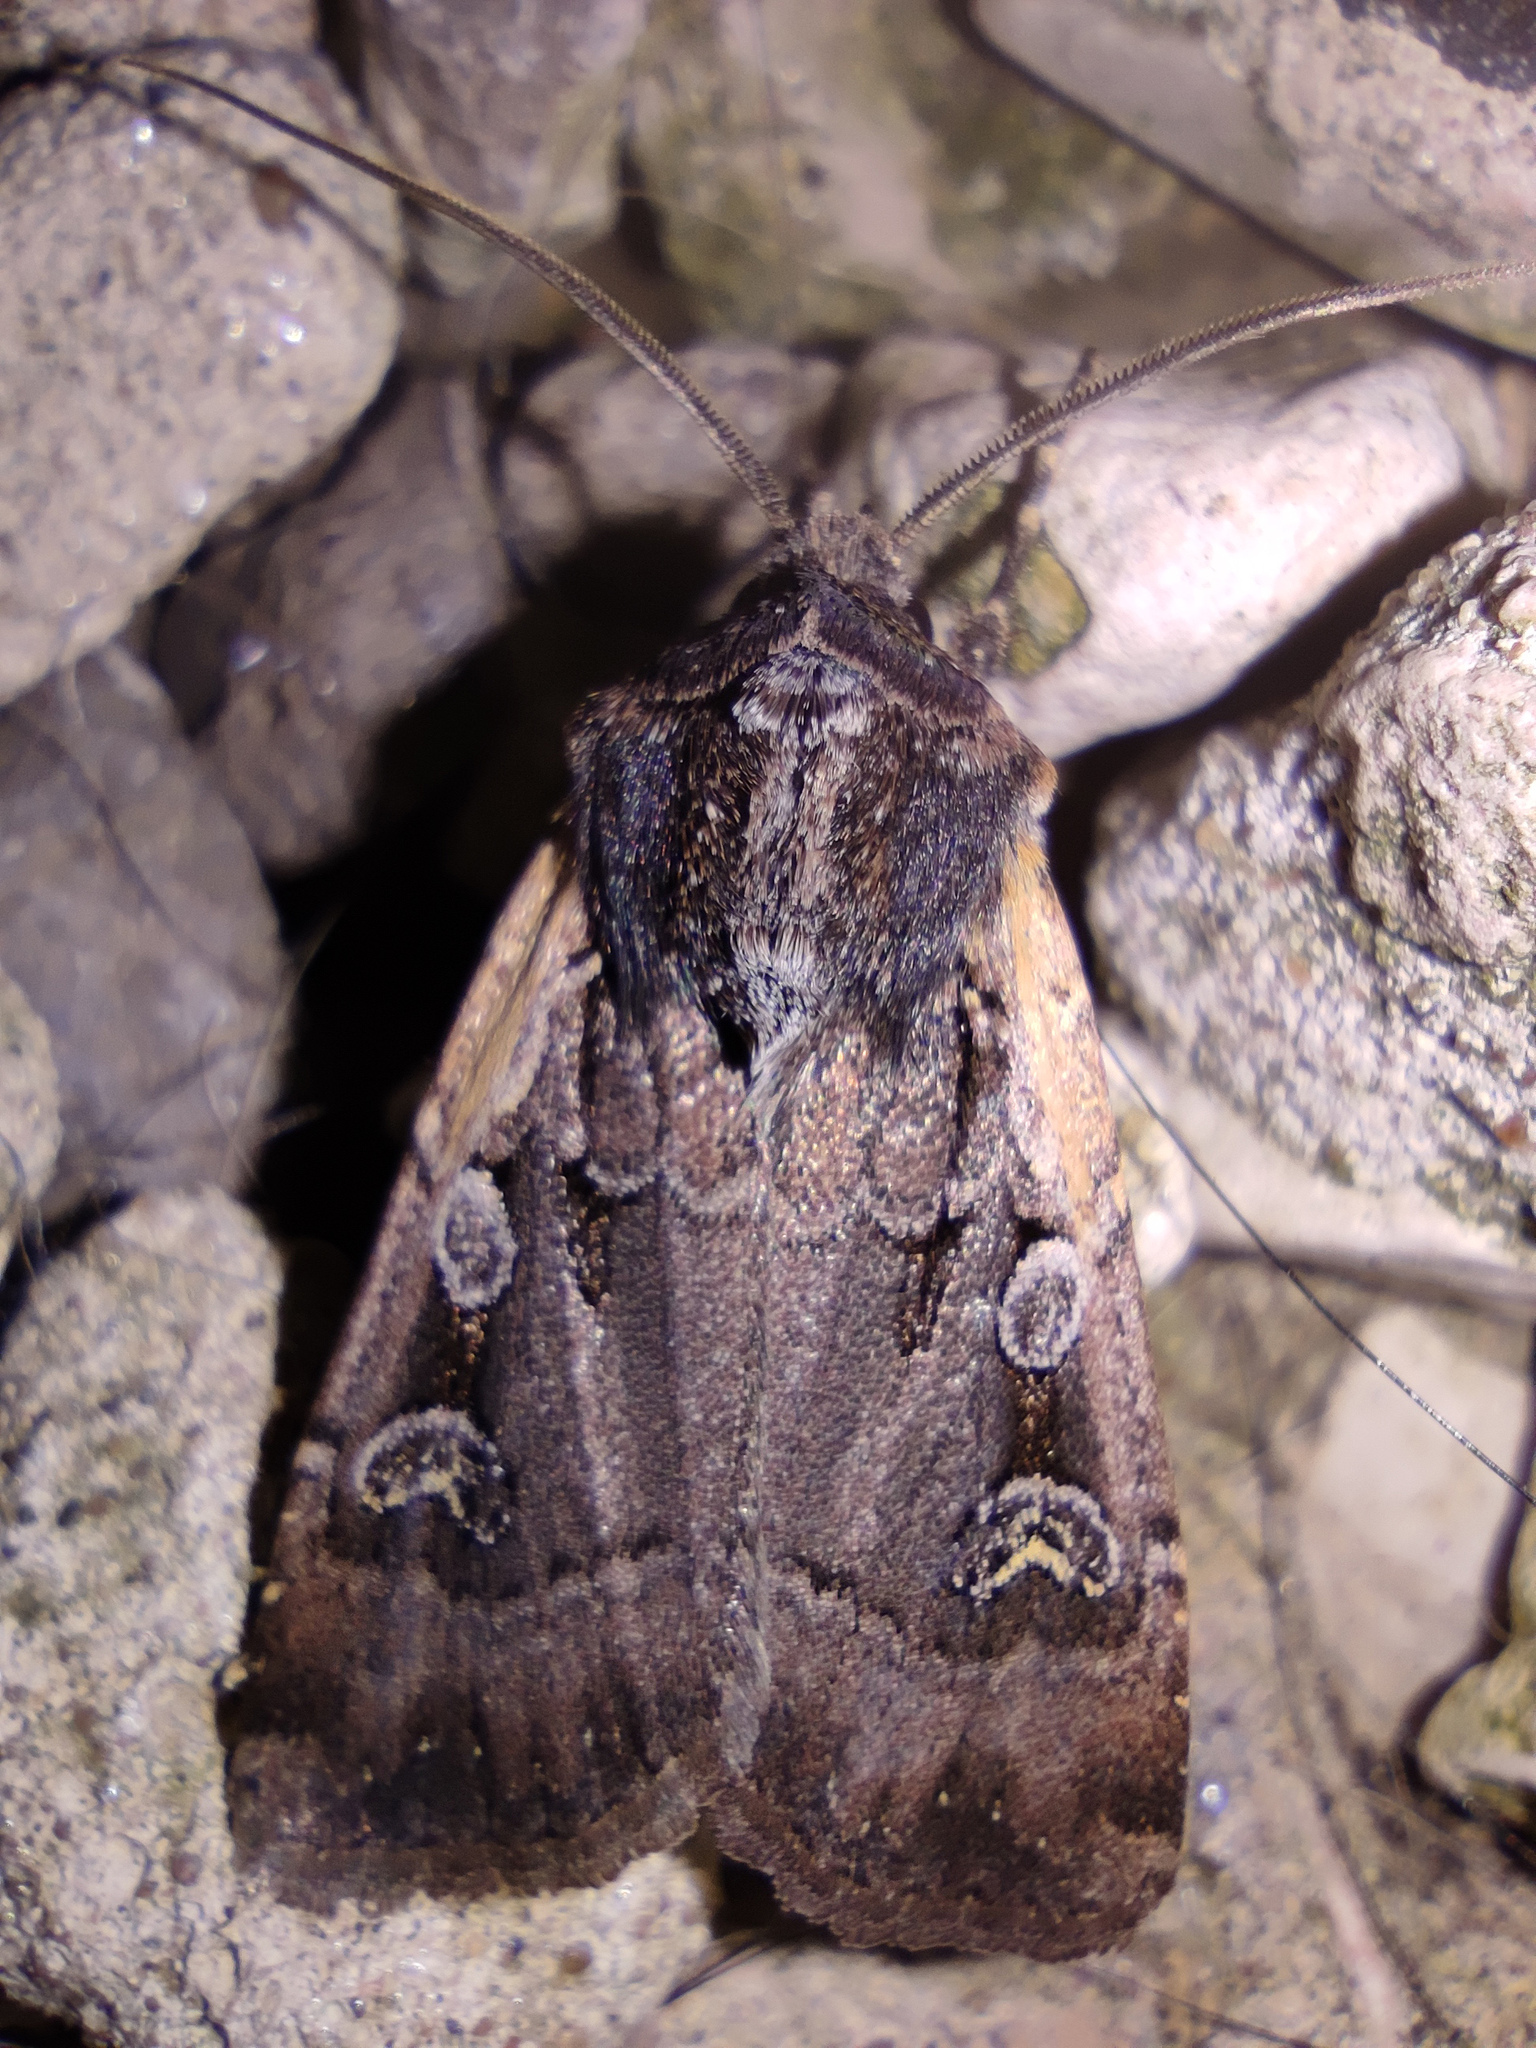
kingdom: Animalia
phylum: Arthropoda
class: Insecta
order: Lepidoptera
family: Noctuidae
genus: Euxoa
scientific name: Euxoa obelisca
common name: Square-spot dart
